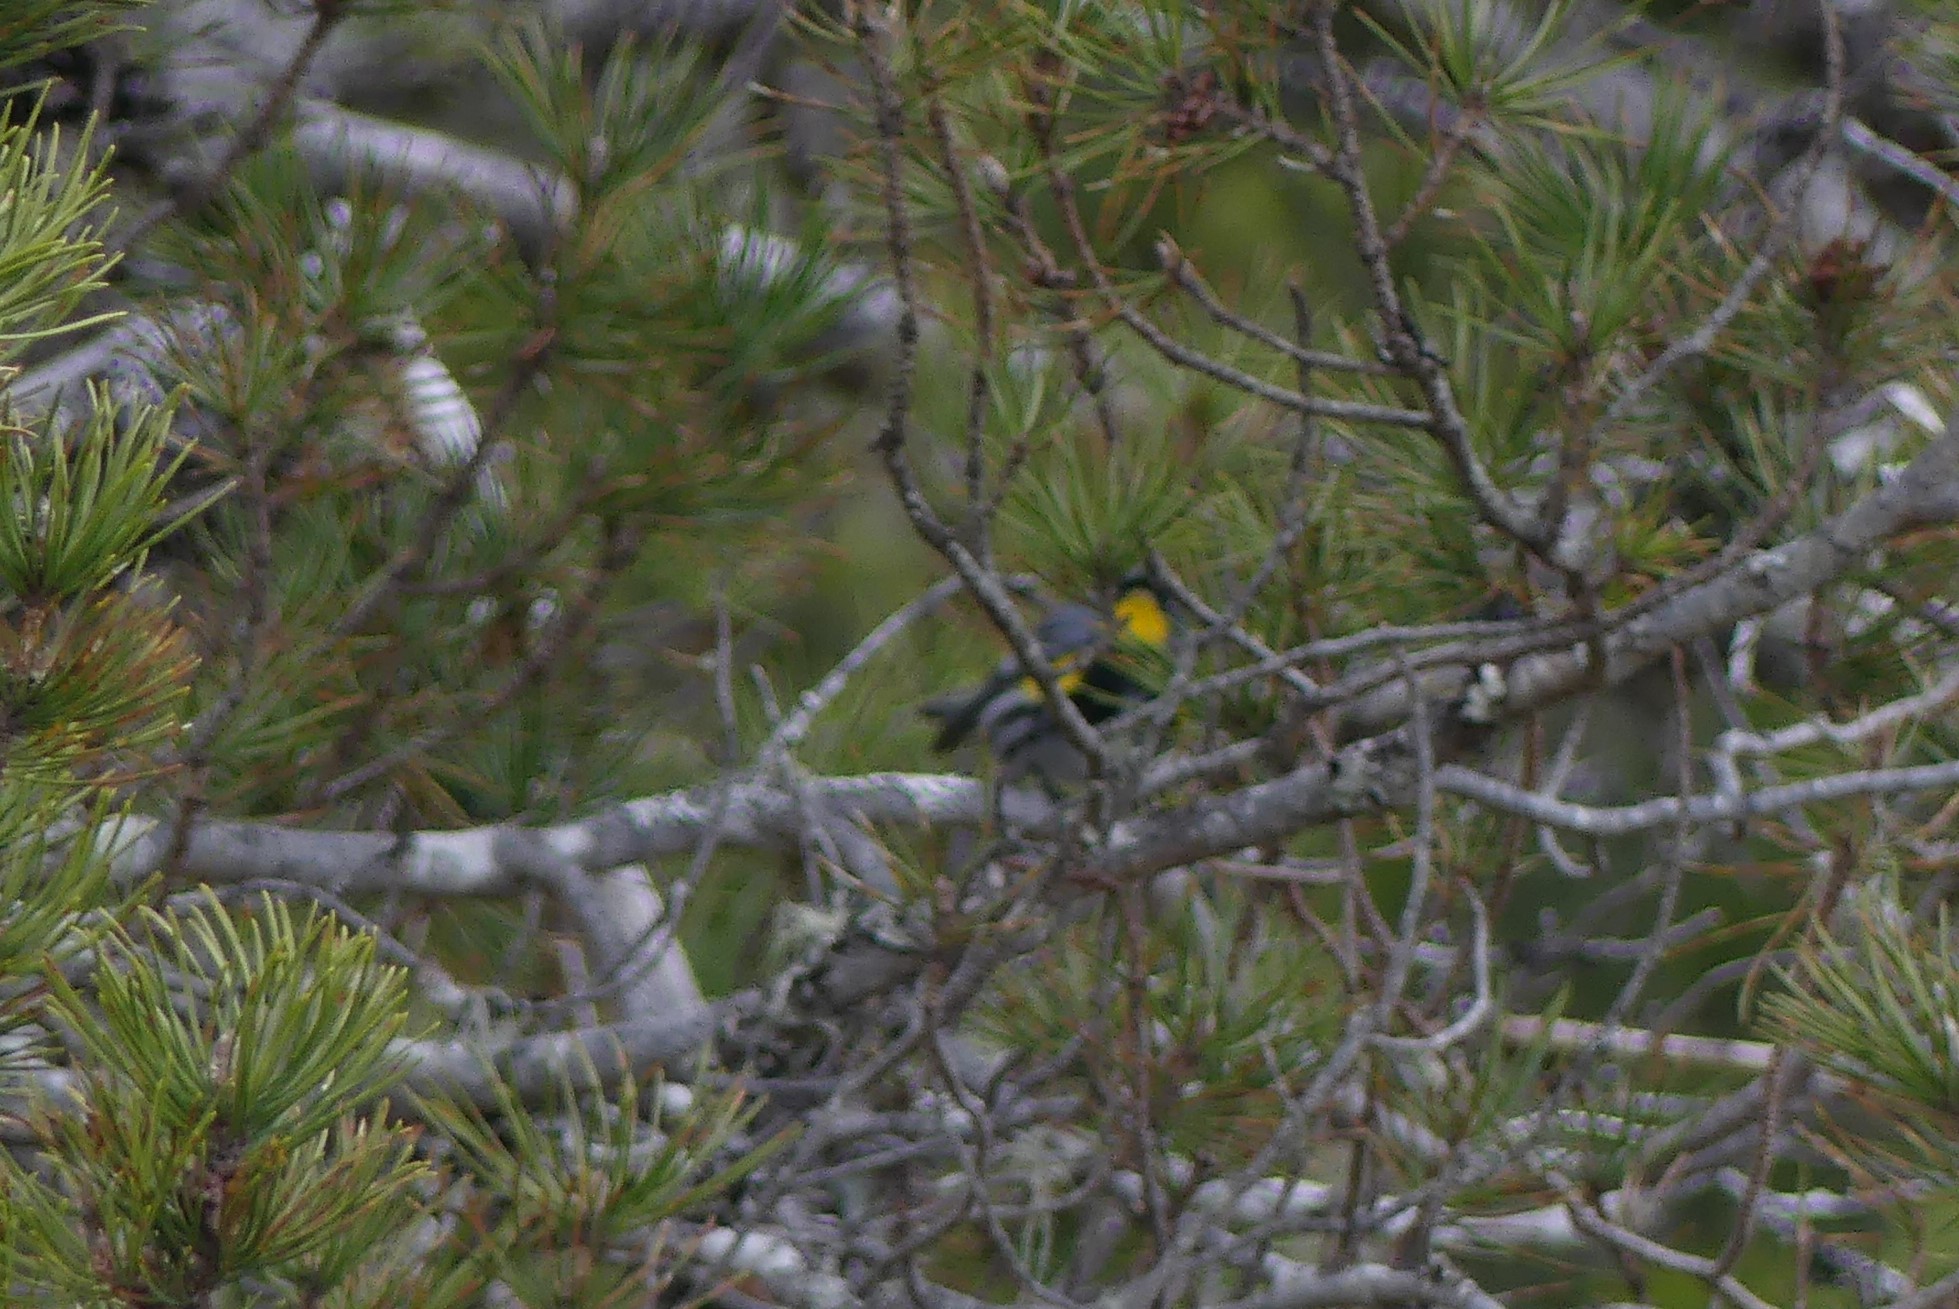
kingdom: Animalia
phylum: Chordata
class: Aves
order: Passeriformes
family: Parulidae
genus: Setophaga
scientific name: Setophaga coronata
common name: Myrtle warbler
